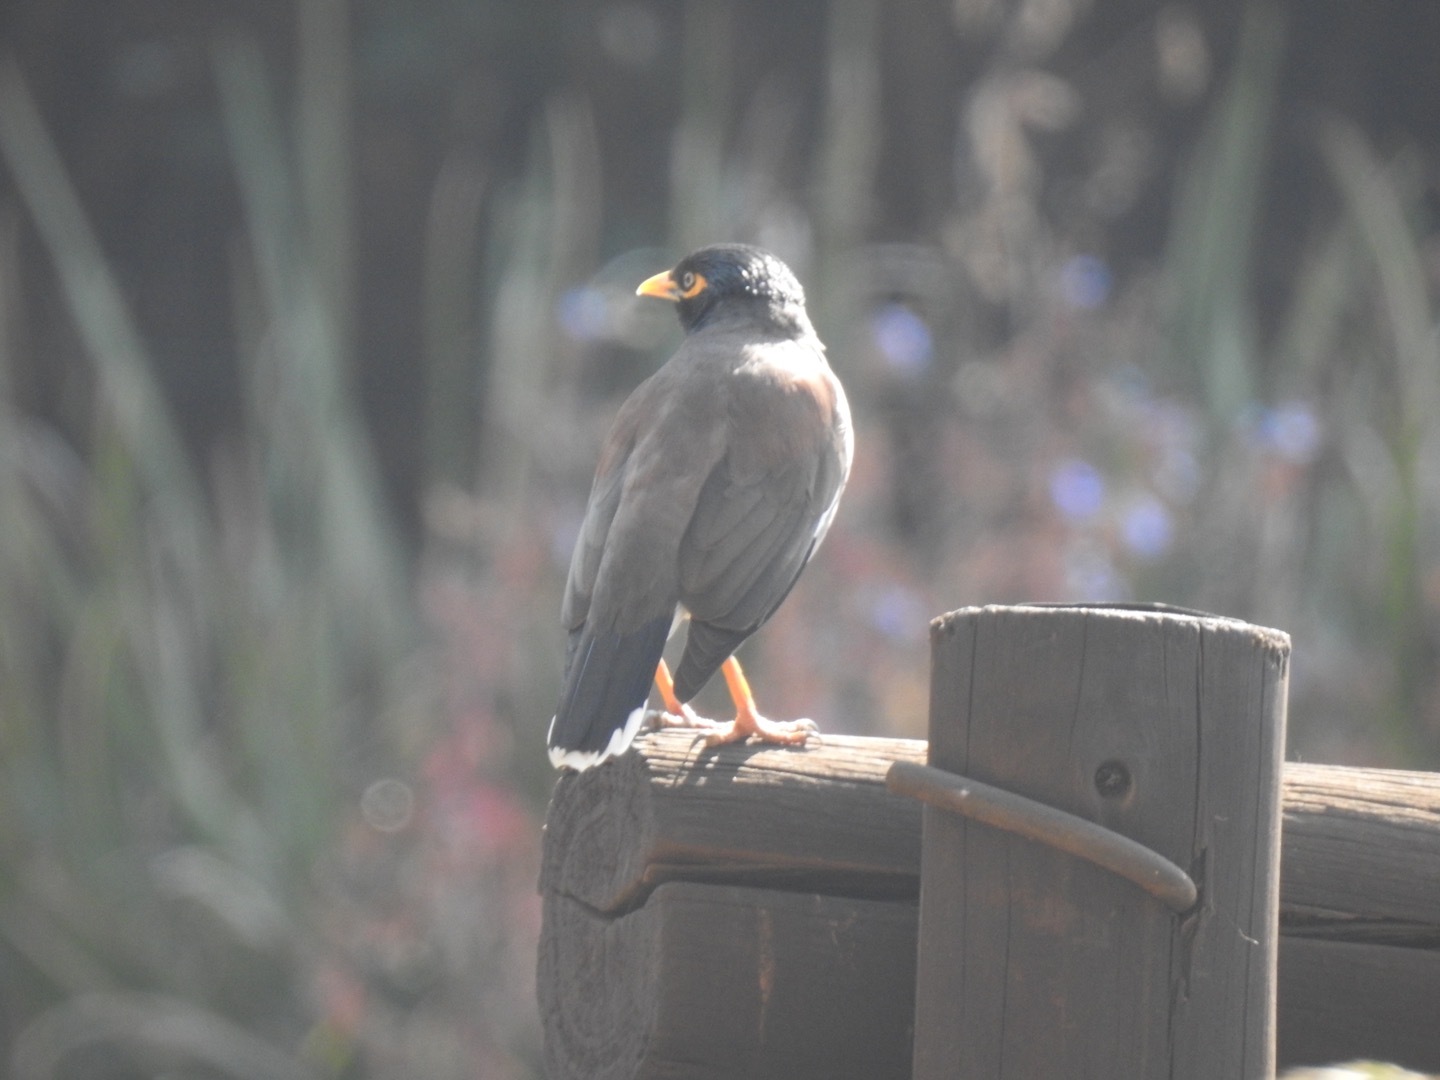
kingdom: Animalia
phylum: Chordata
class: Aves
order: Passeriformes
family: Sturnidae
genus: Acridotheres
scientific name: Acridotheres tristis
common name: Common myna
